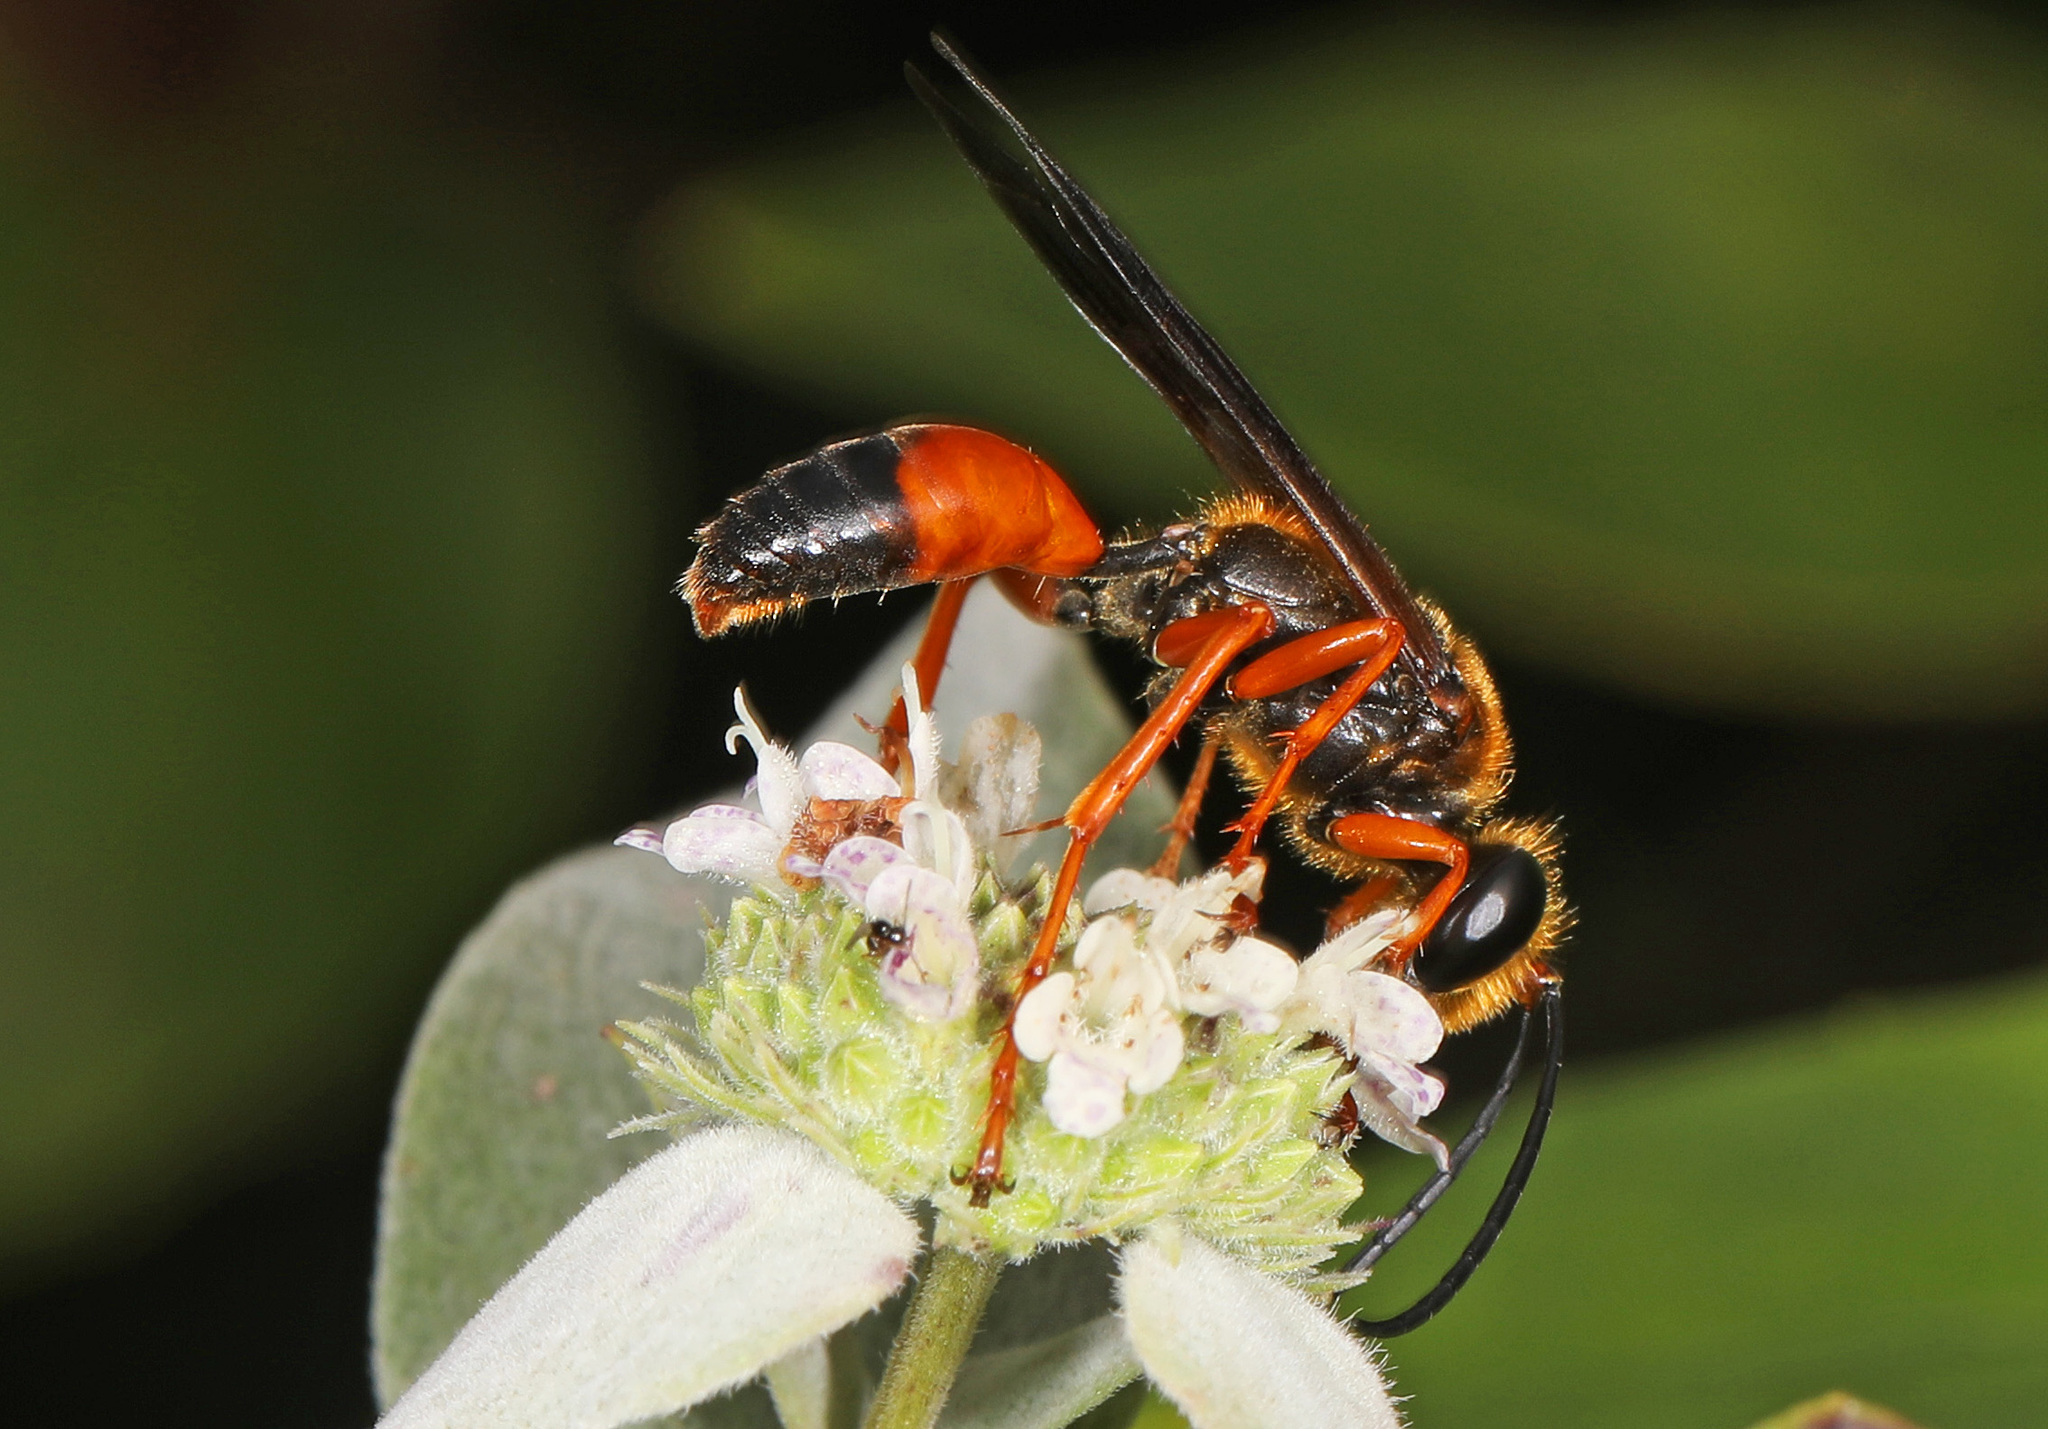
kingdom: Animalia
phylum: Arthropoda
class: Insecta
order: Hymenoptera
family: Sphecidae
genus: Sphex
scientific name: Sphex ichneumoneus
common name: Great golden digger wasp
